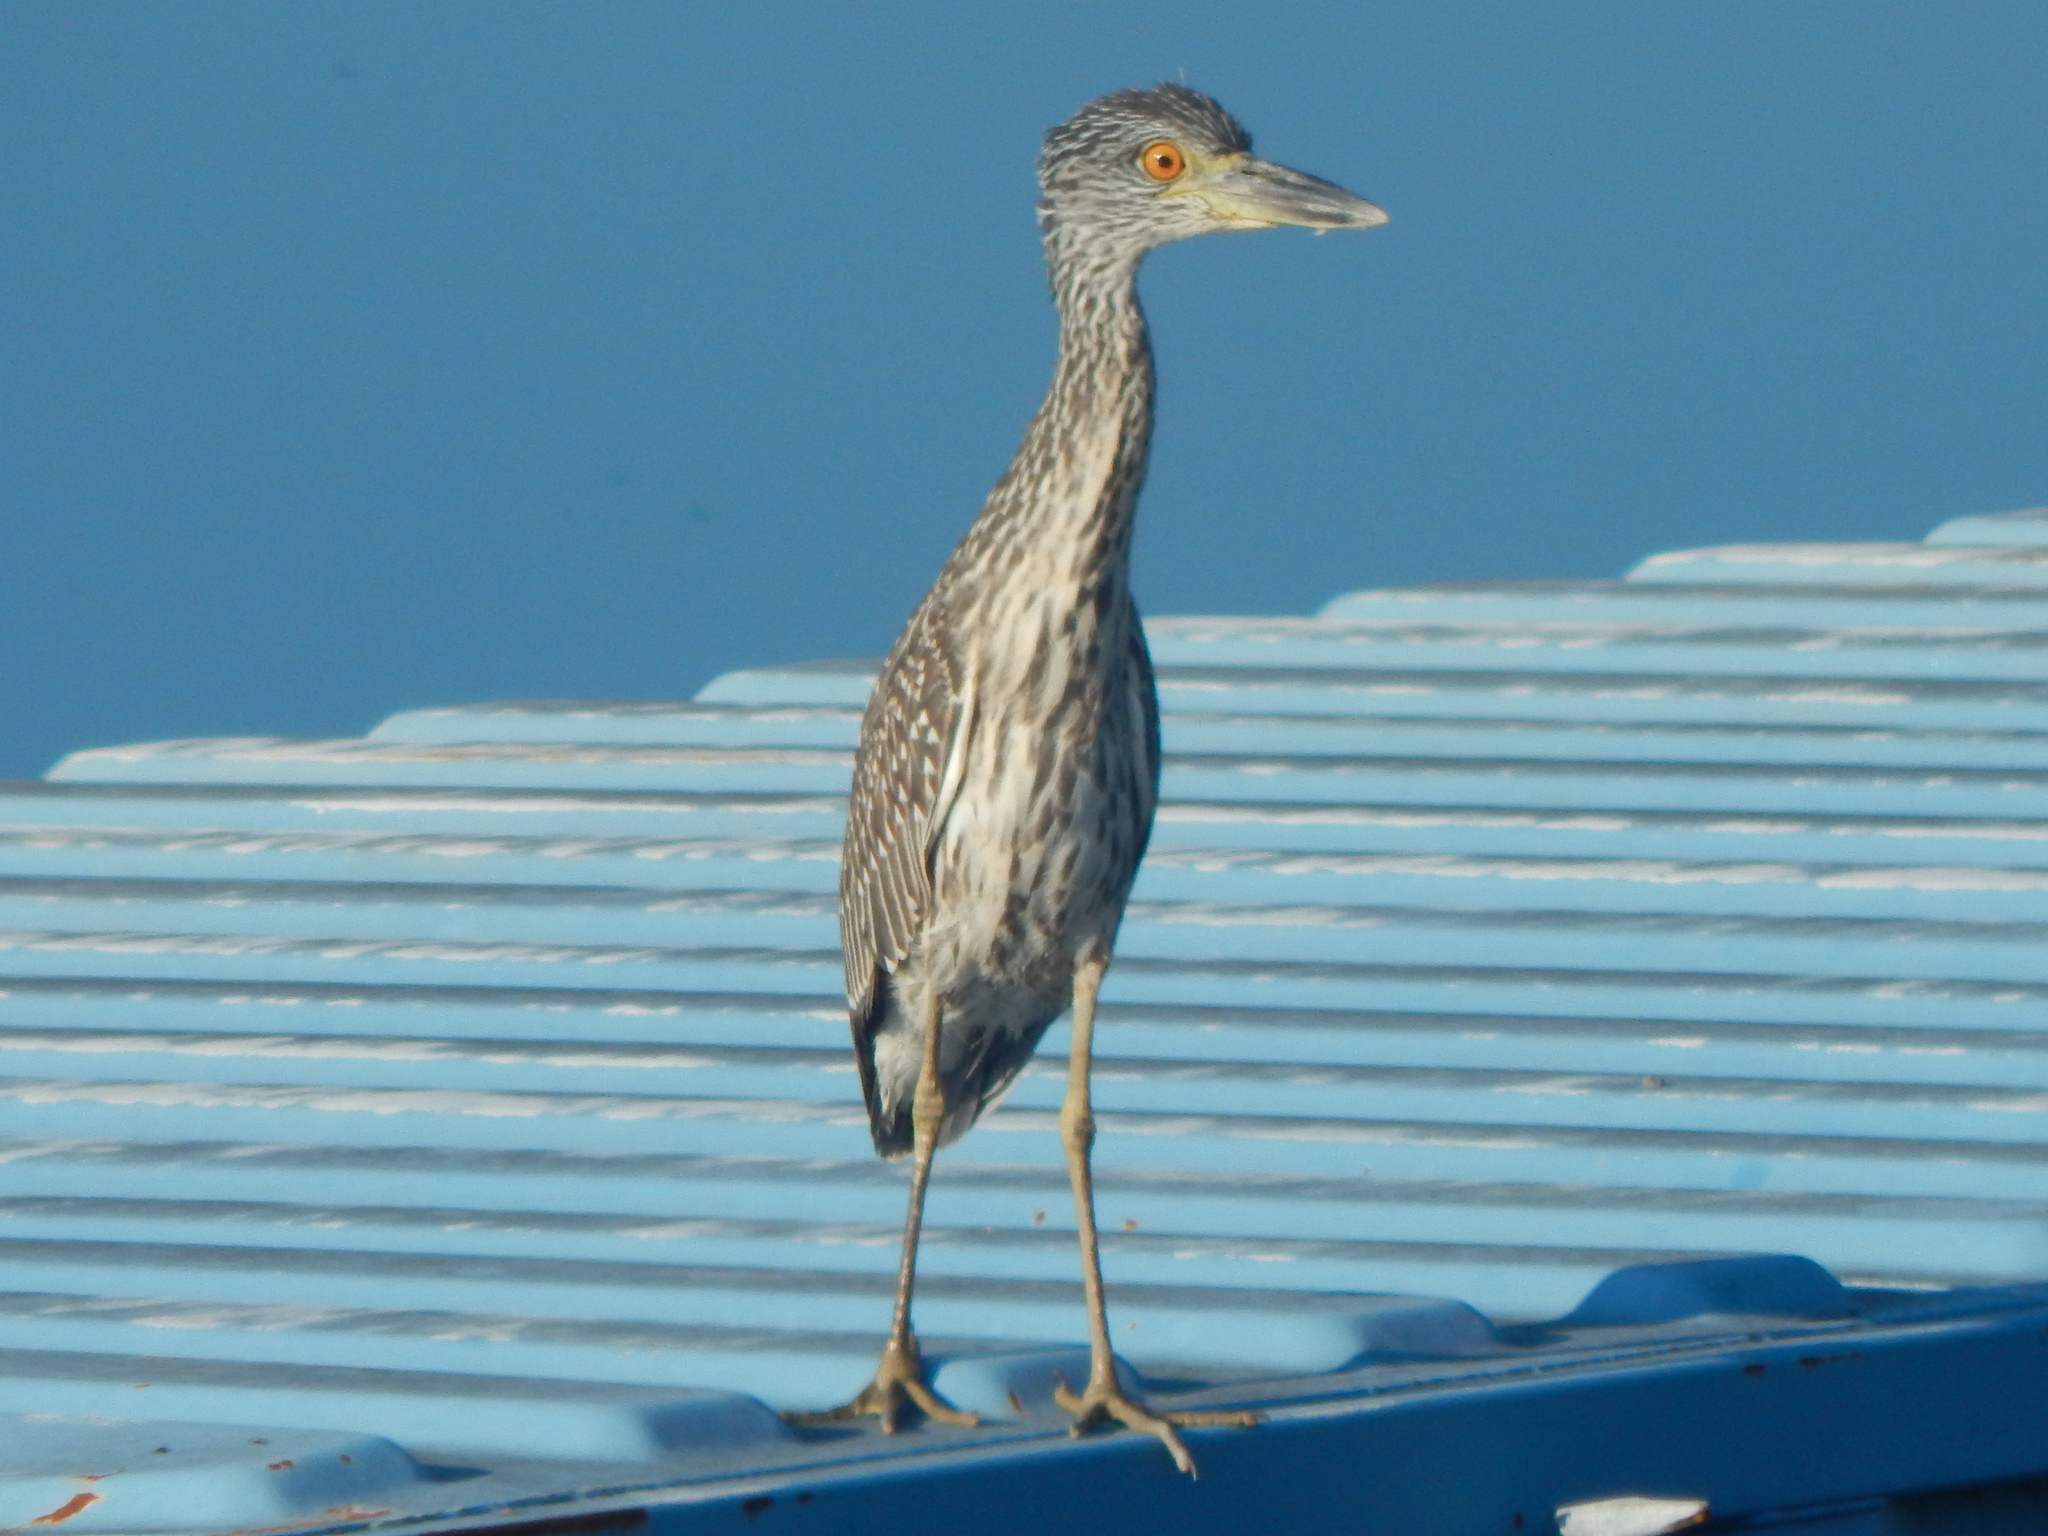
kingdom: Animalia
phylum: Chordata
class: Aves
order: Pelecaniformes
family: Ardeidae
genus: Nyctanassa
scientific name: Nyctanassa violacea
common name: Yellow-crowned night heron
